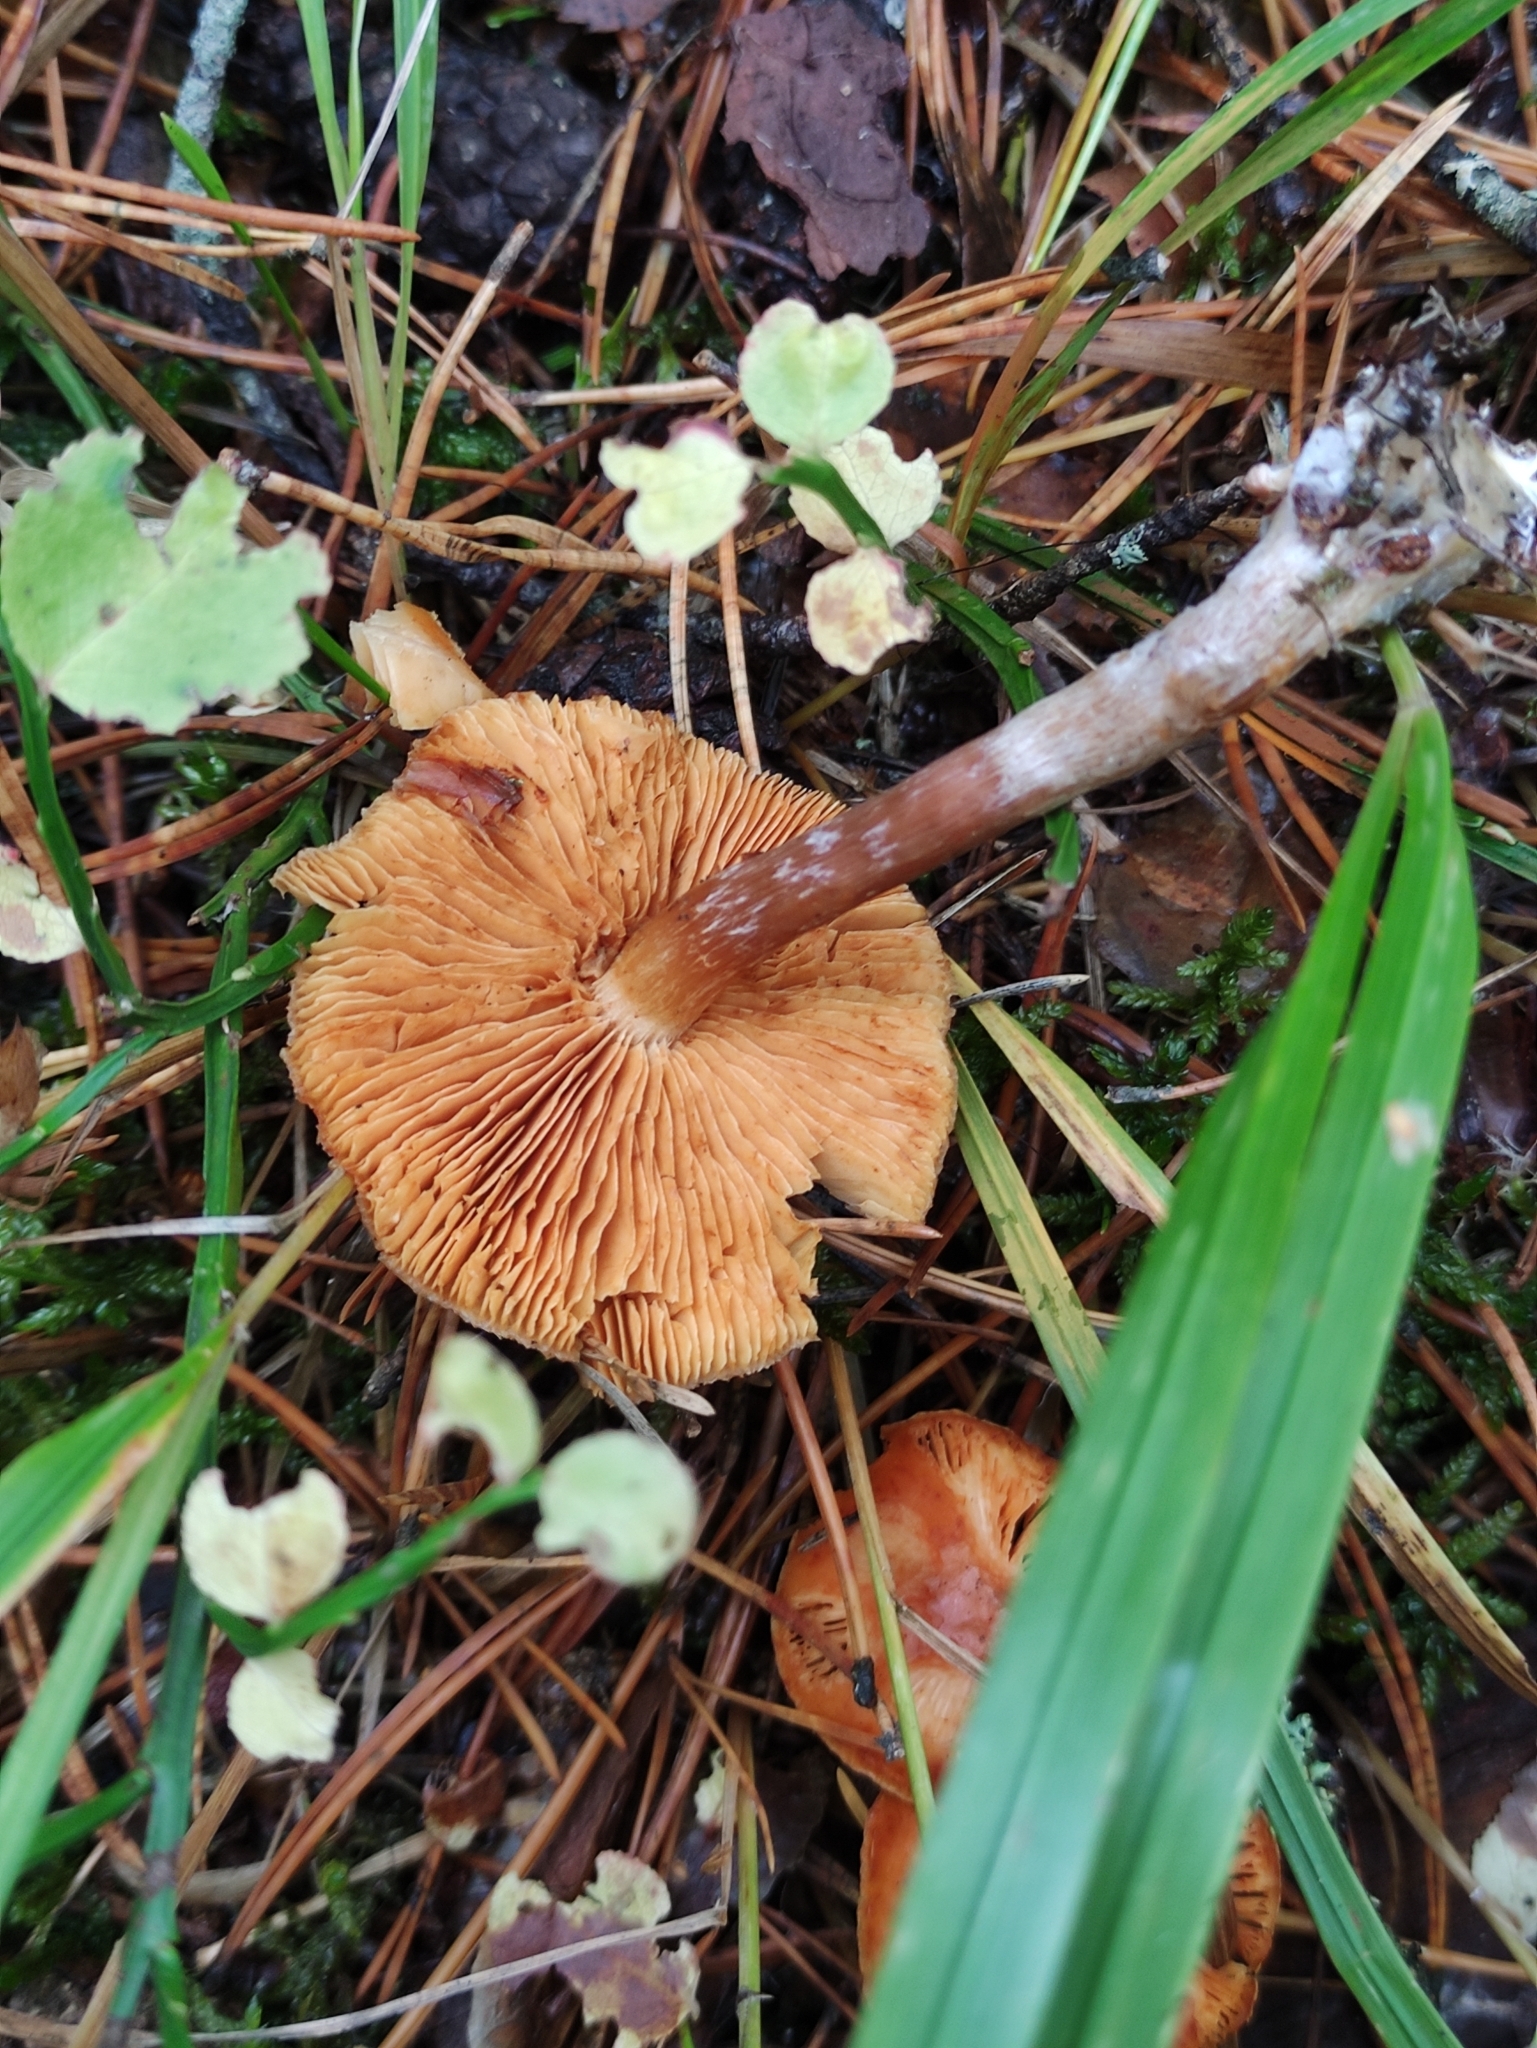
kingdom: Fungi
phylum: Basidiomycota
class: Agaricomycetes
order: Agaricales
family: Hymenogastraceae
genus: Gymnopilus
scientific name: Gymnopilus penetrans
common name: Common rustgill
